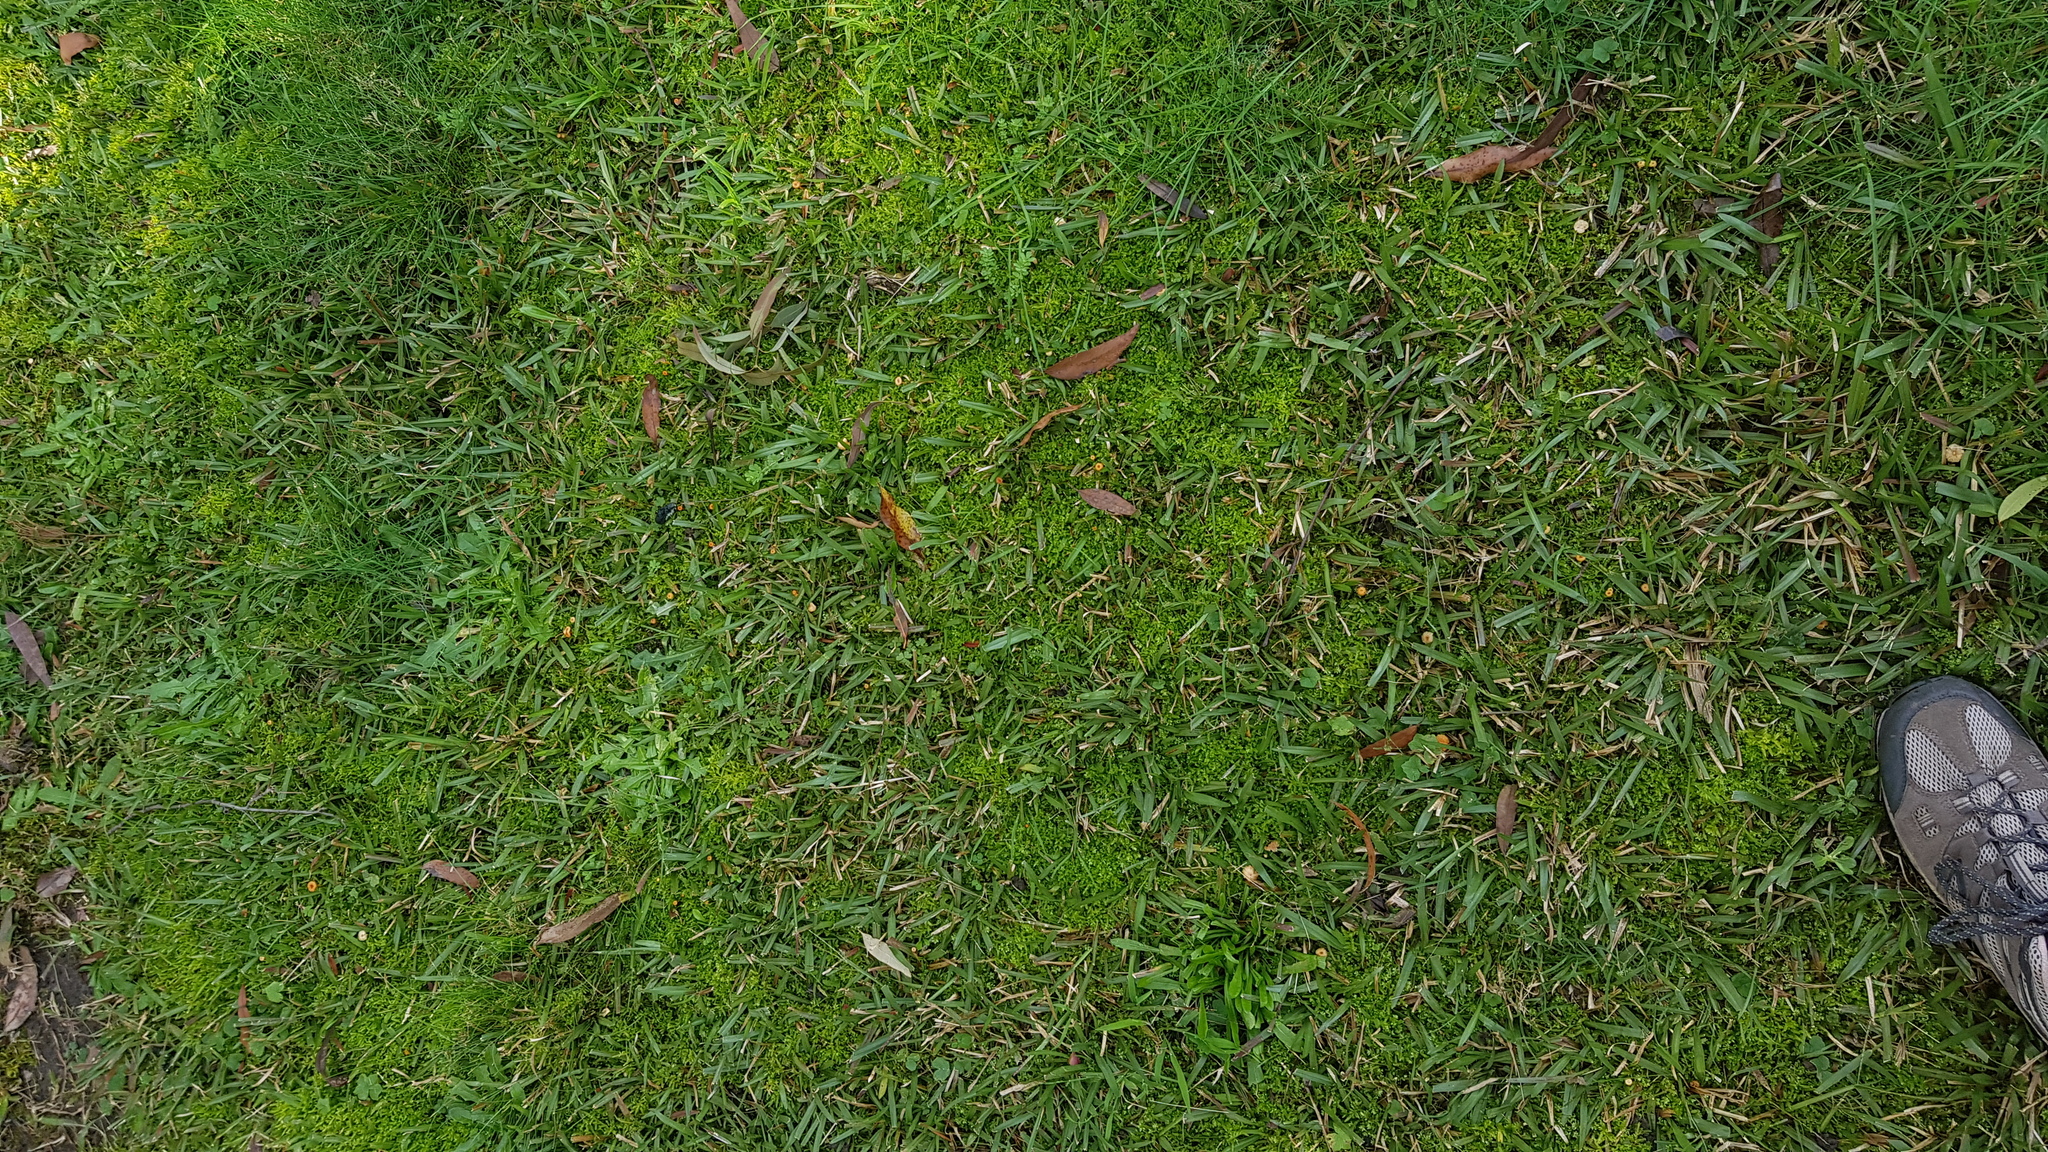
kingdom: Fungi
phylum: Basidiomycota
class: Agaricomycetes
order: Hymenochaetales
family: Rickenellaceae
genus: Rickenella
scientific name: Rickenella fibula
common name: Orange mosscap
